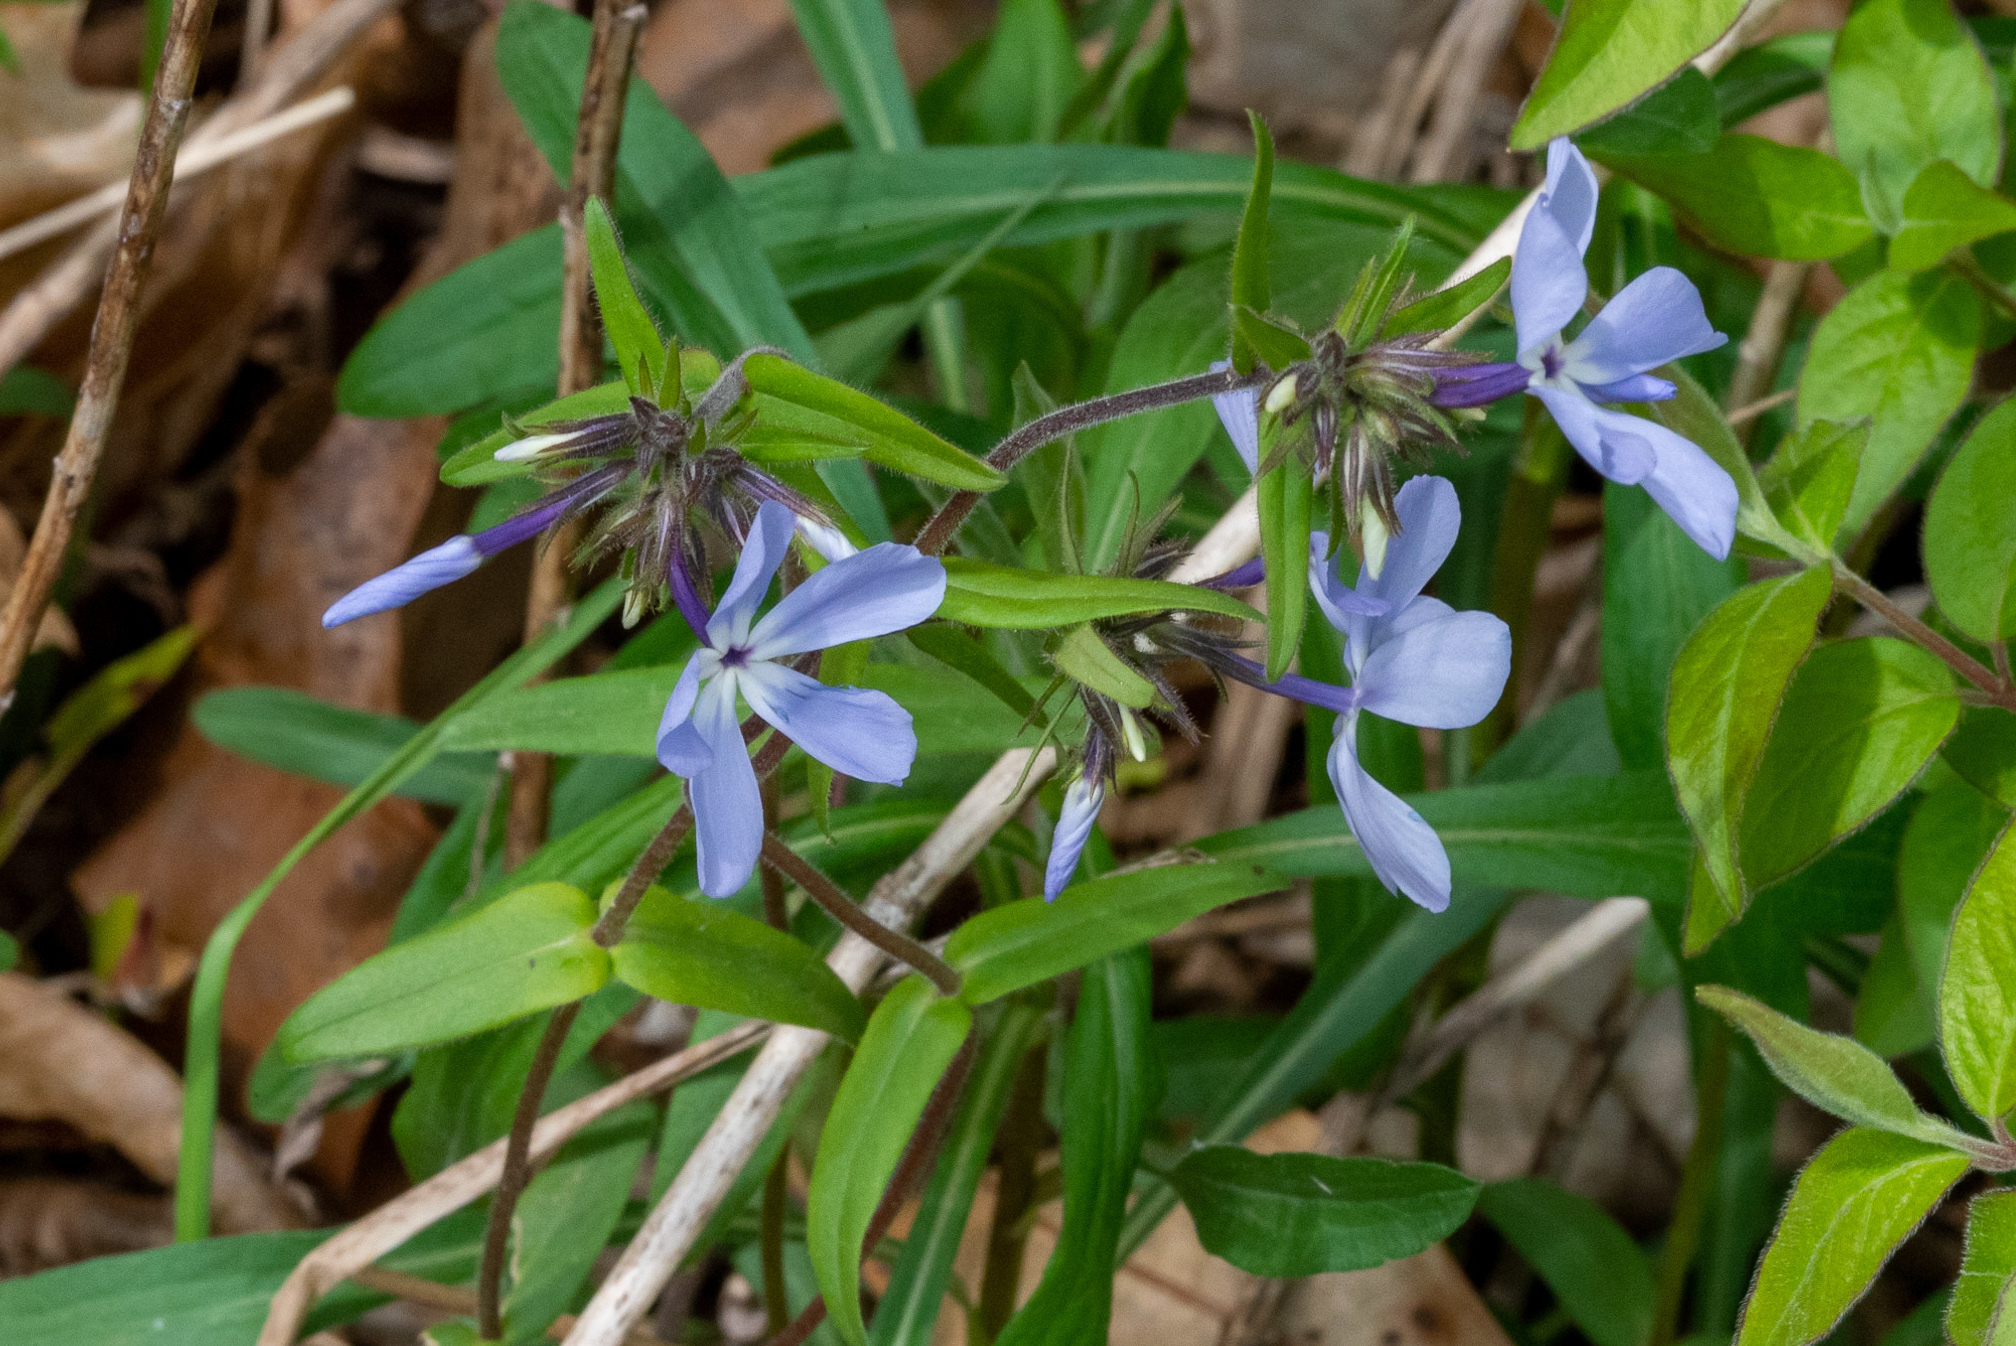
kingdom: Plantae
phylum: Tracheophyta
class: Magnoliopsida
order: Ericales
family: Polemoniaceae
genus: Phlox
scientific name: Phlox divaricata
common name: Blue phlox
